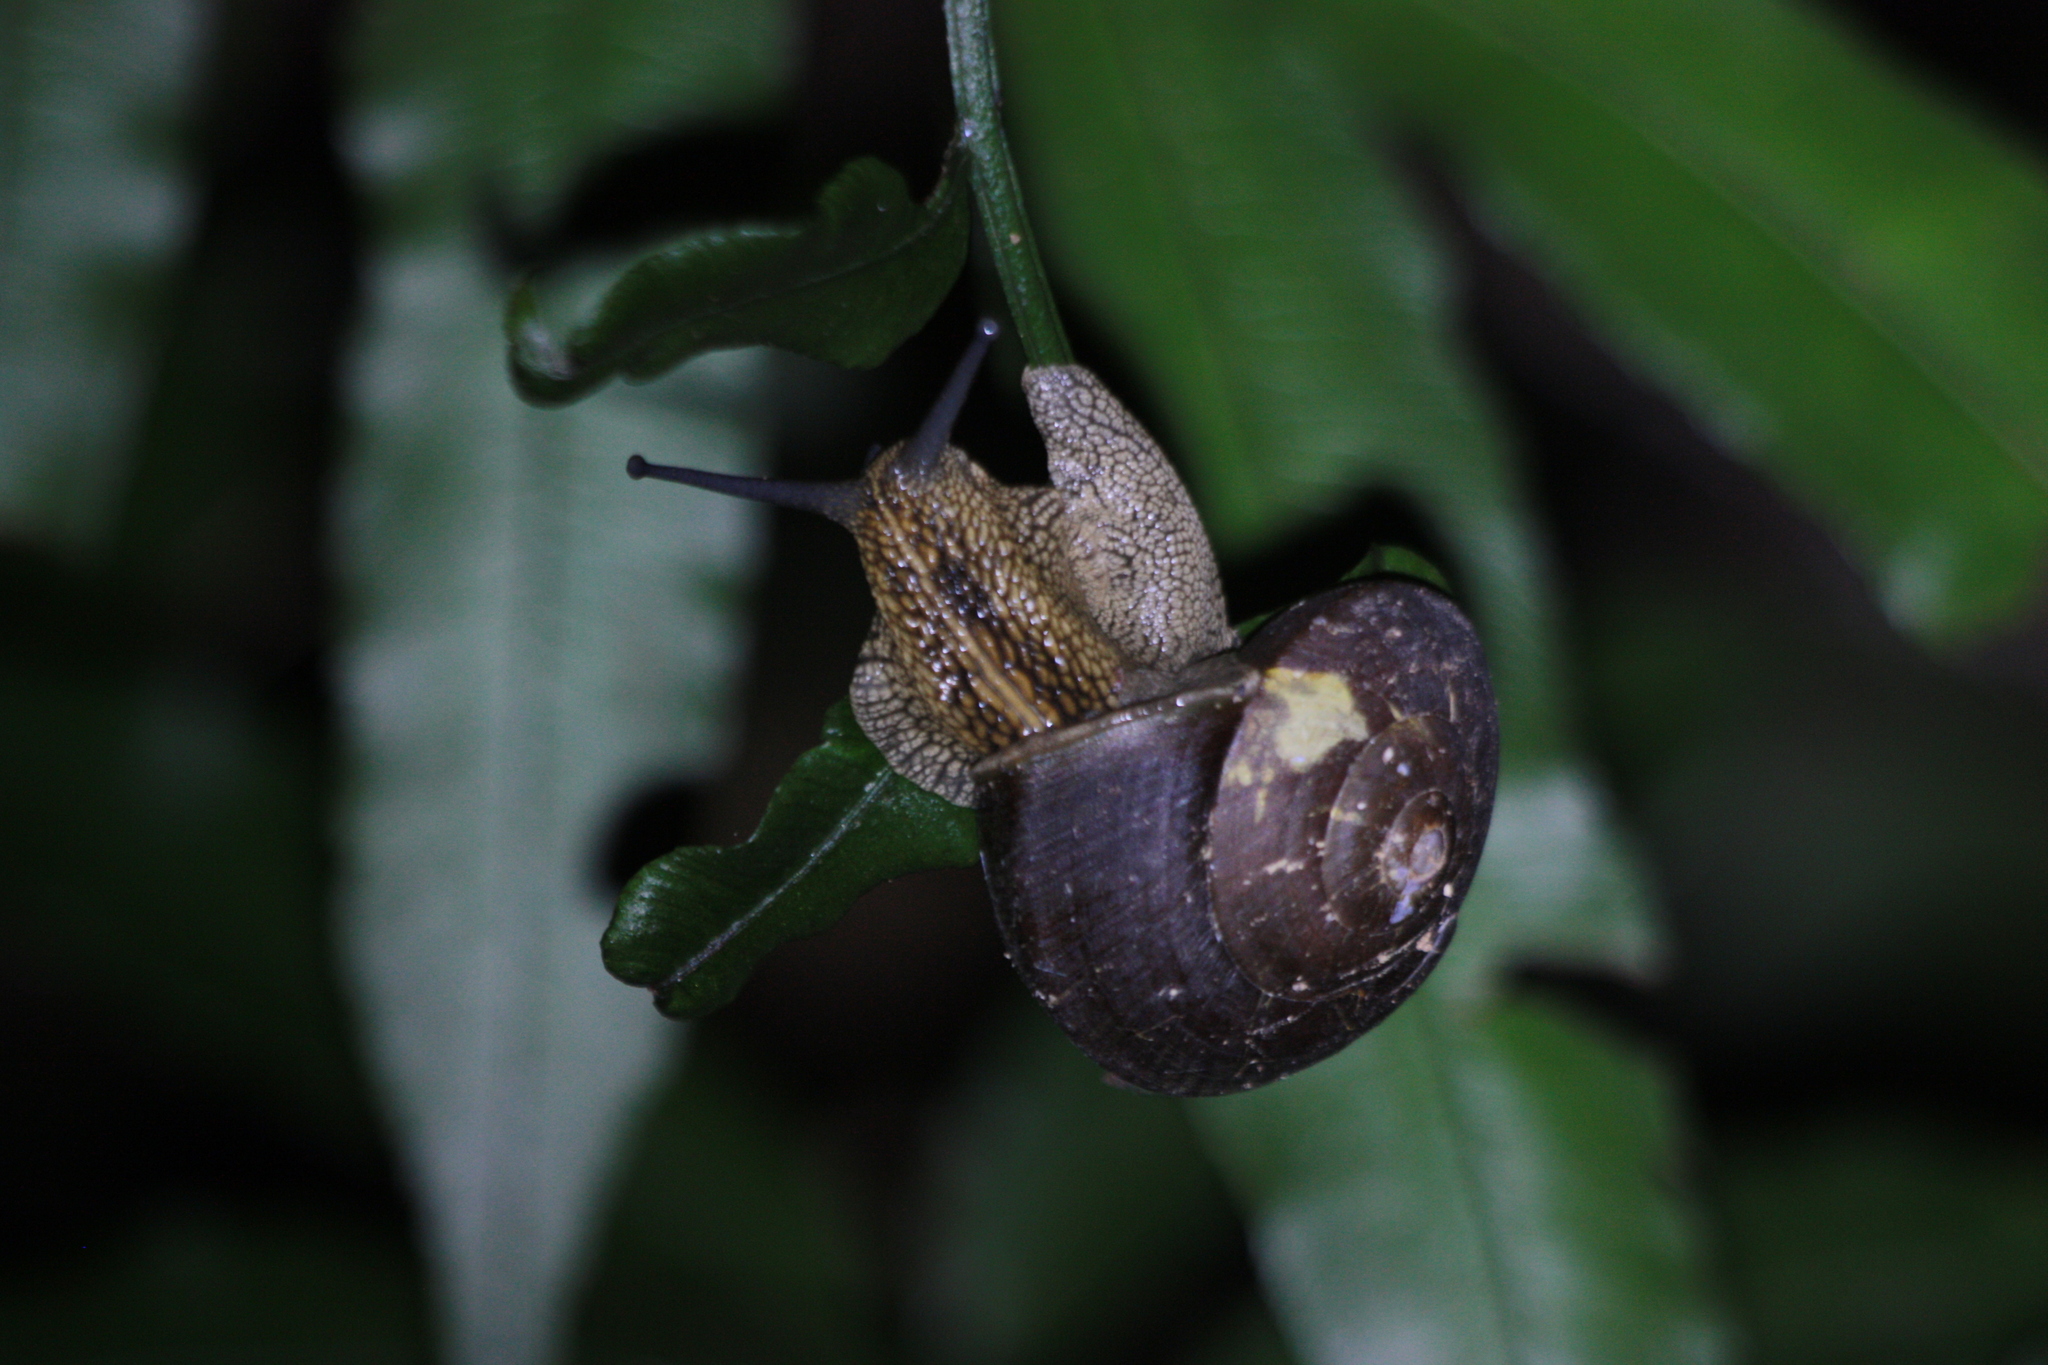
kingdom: Animalia
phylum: Mollusca
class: Gastropoda
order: Stylommatophora
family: Camaenidae
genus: Nesiohelix
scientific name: Nesiohelix swinhoei
